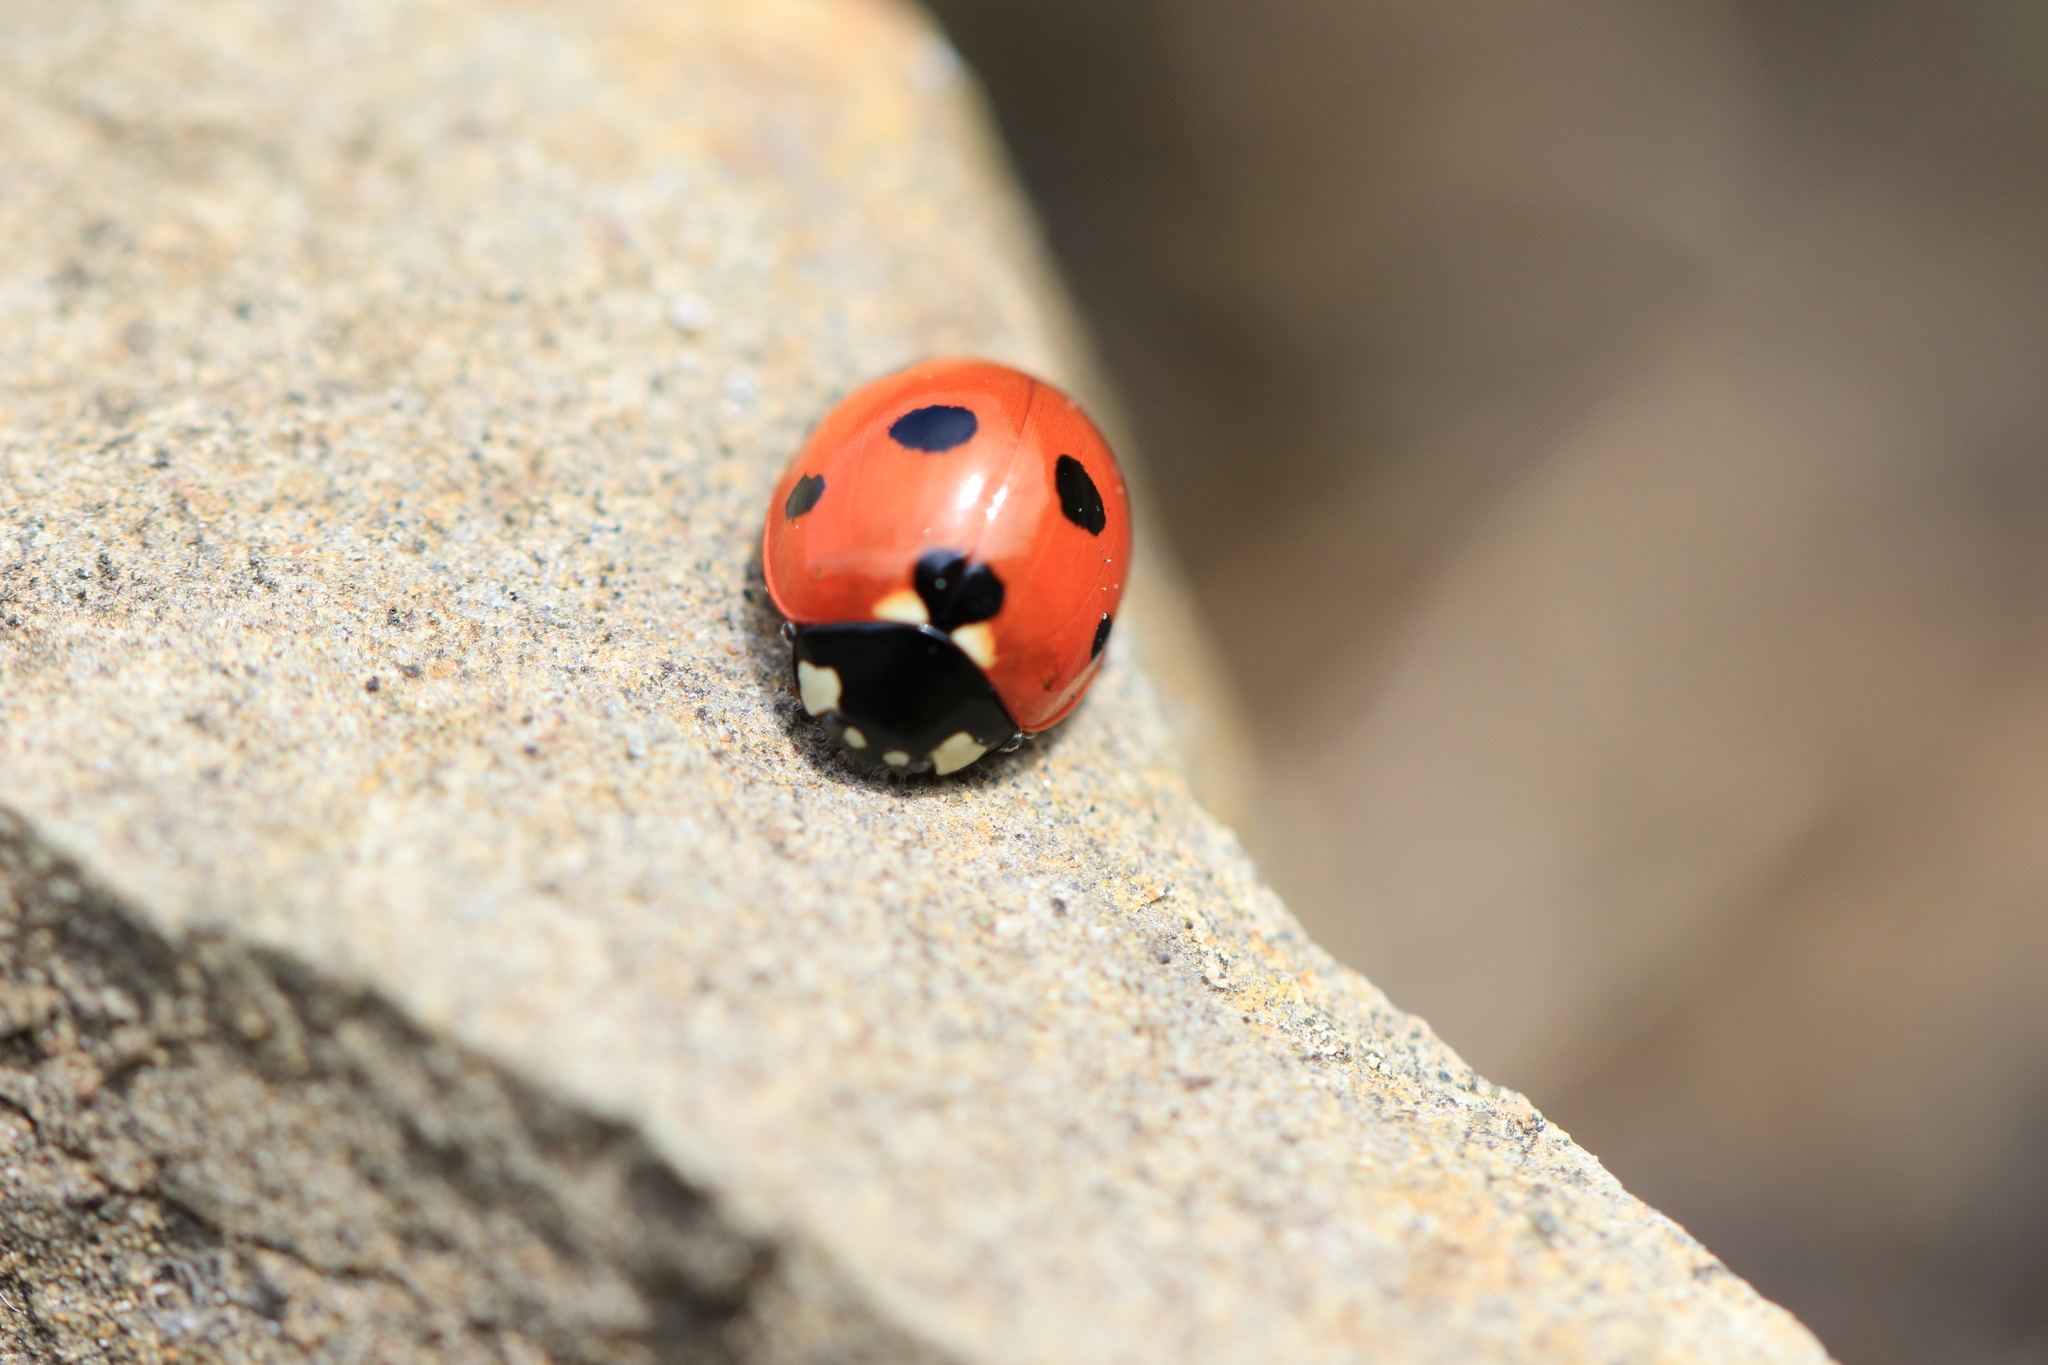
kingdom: Animalia
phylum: Arthropoda
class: Insecta
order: Coleoptera
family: Coccinellidae
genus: Coccinella
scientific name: Coccinella septempunctata
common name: Sevenspotted lady beetle
